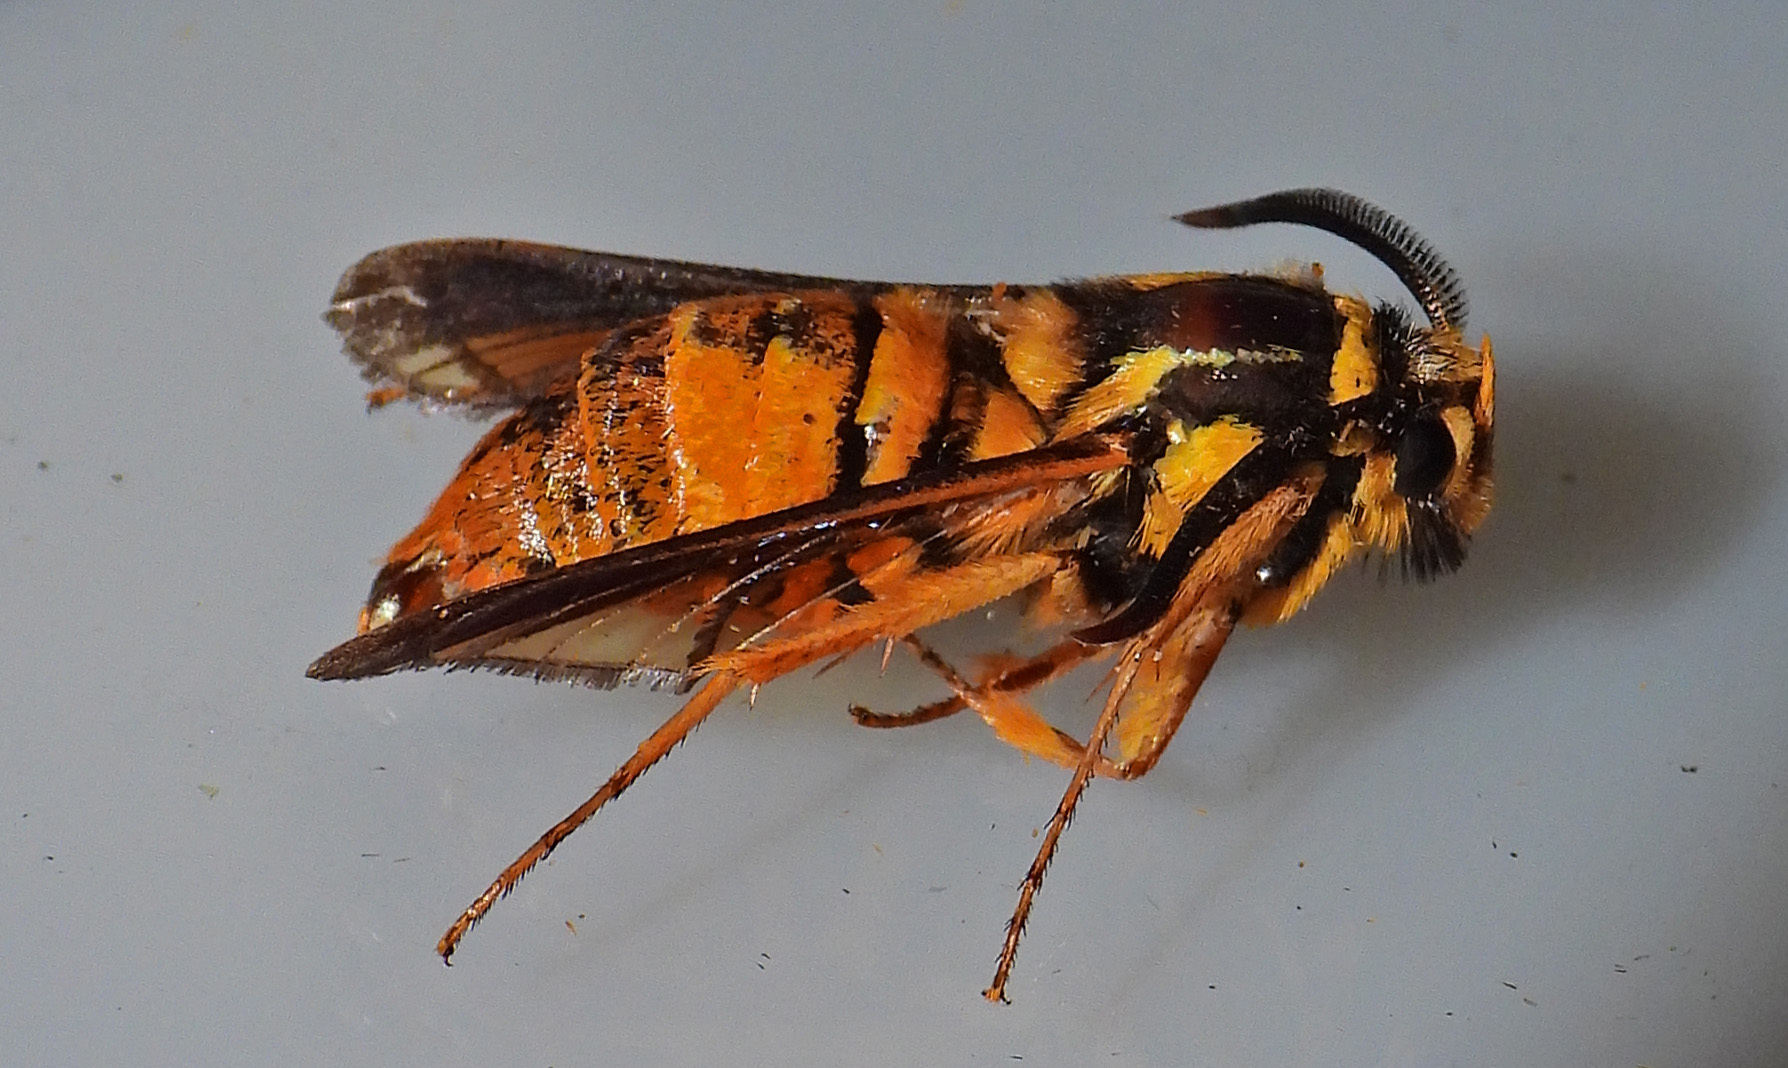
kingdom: Animalia
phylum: Arthropoda
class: Insecta
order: Lepidoptera
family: Sesiidae
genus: Paranthrene
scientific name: Paranthrene simulans
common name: Hornet clearwing moth
